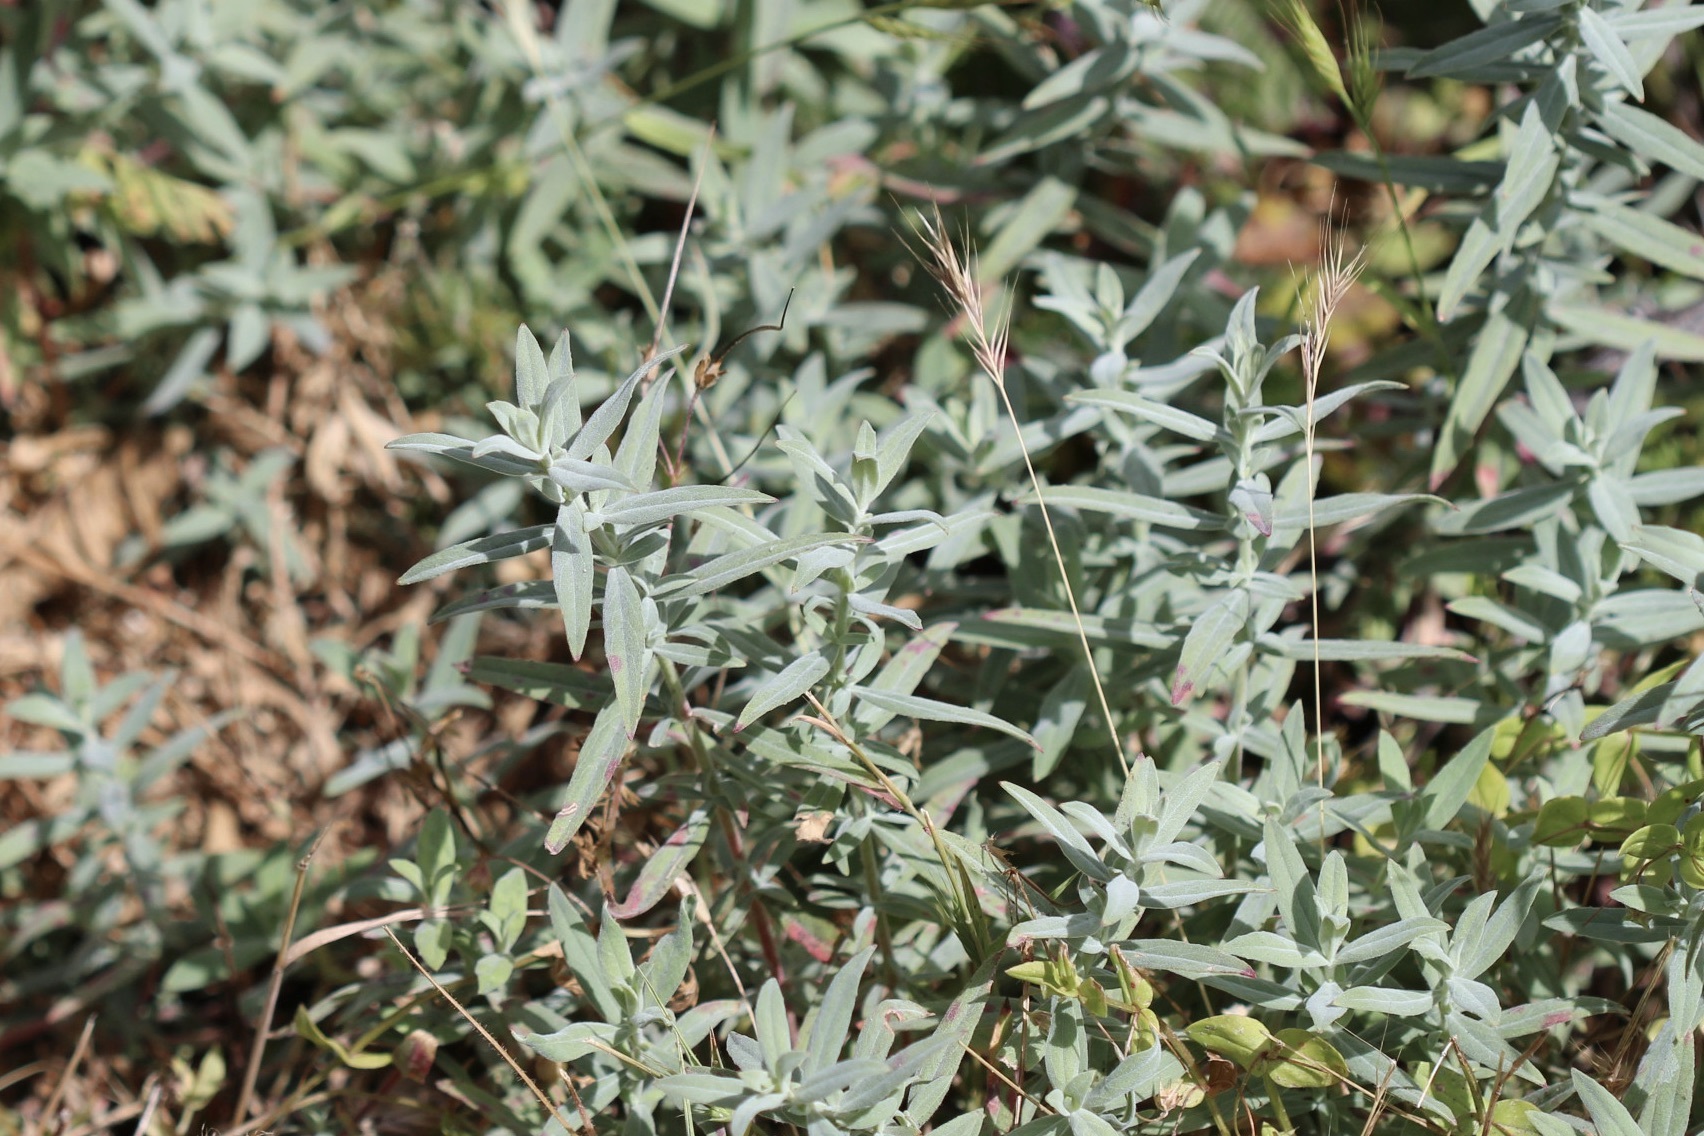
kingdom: Plantae
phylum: Tracheophyta
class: Magnoliopsida
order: Myrtales
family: Onagraceae
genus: Epilobium
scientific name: Epilobium canum
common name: California-fuchsia
